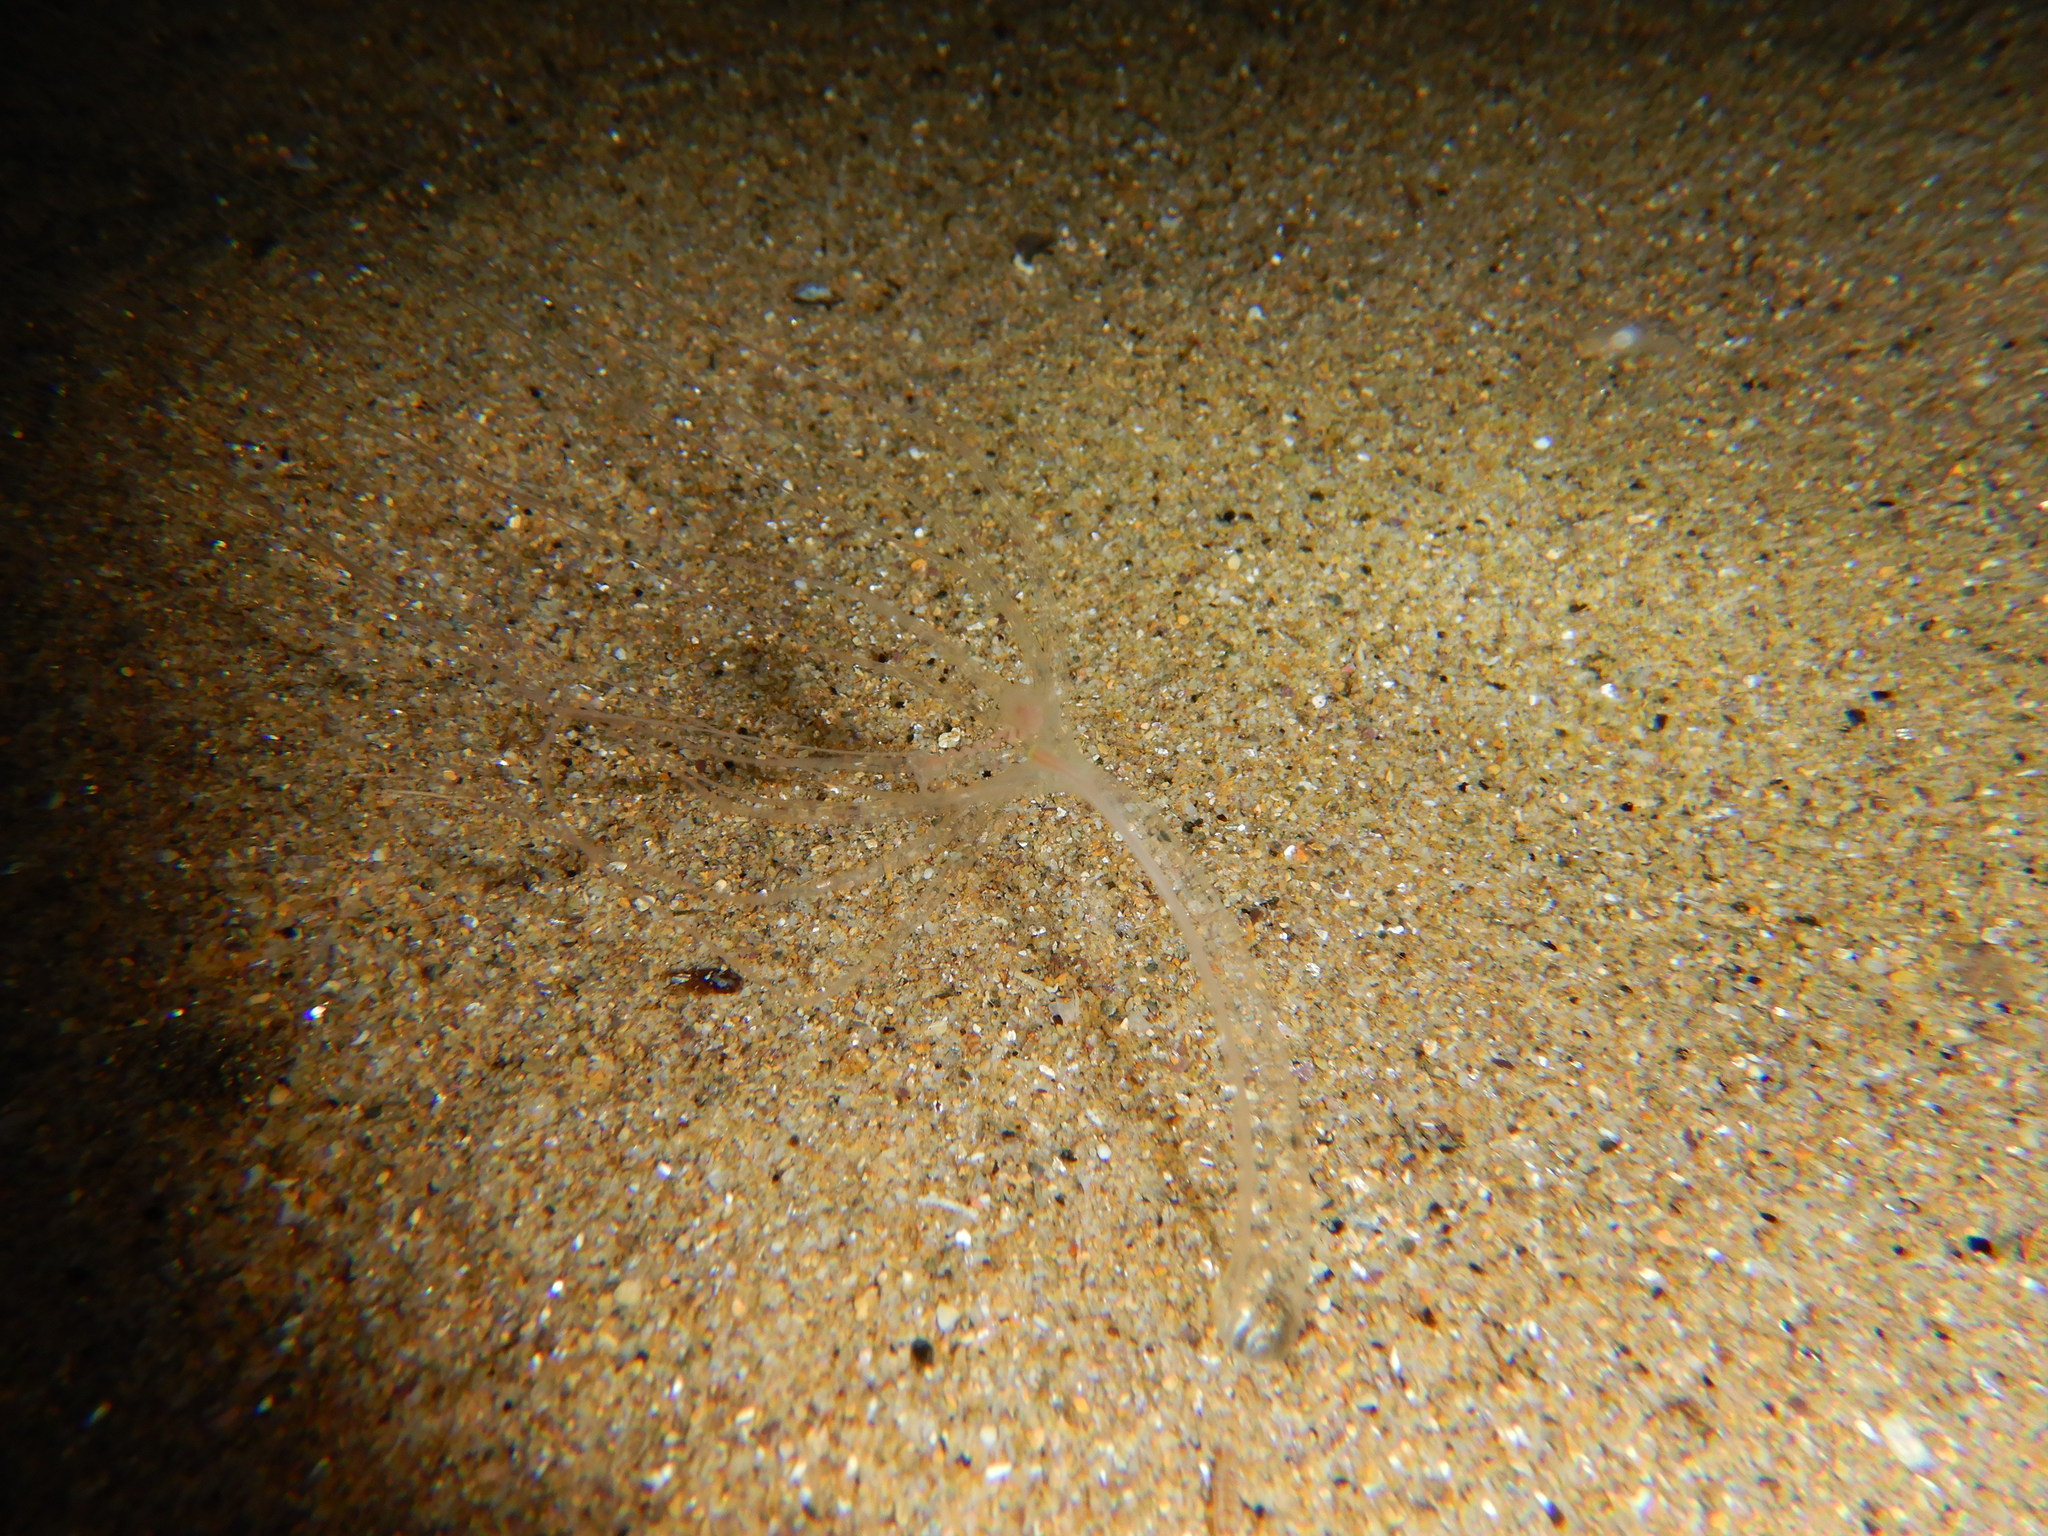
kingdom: Animalia
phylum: Cnidaria
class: Anthozoa
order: Actiniaria
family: Halcampoididae
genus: Halcampoides
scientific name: Halcampoides purpureus
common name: Purple anemone
